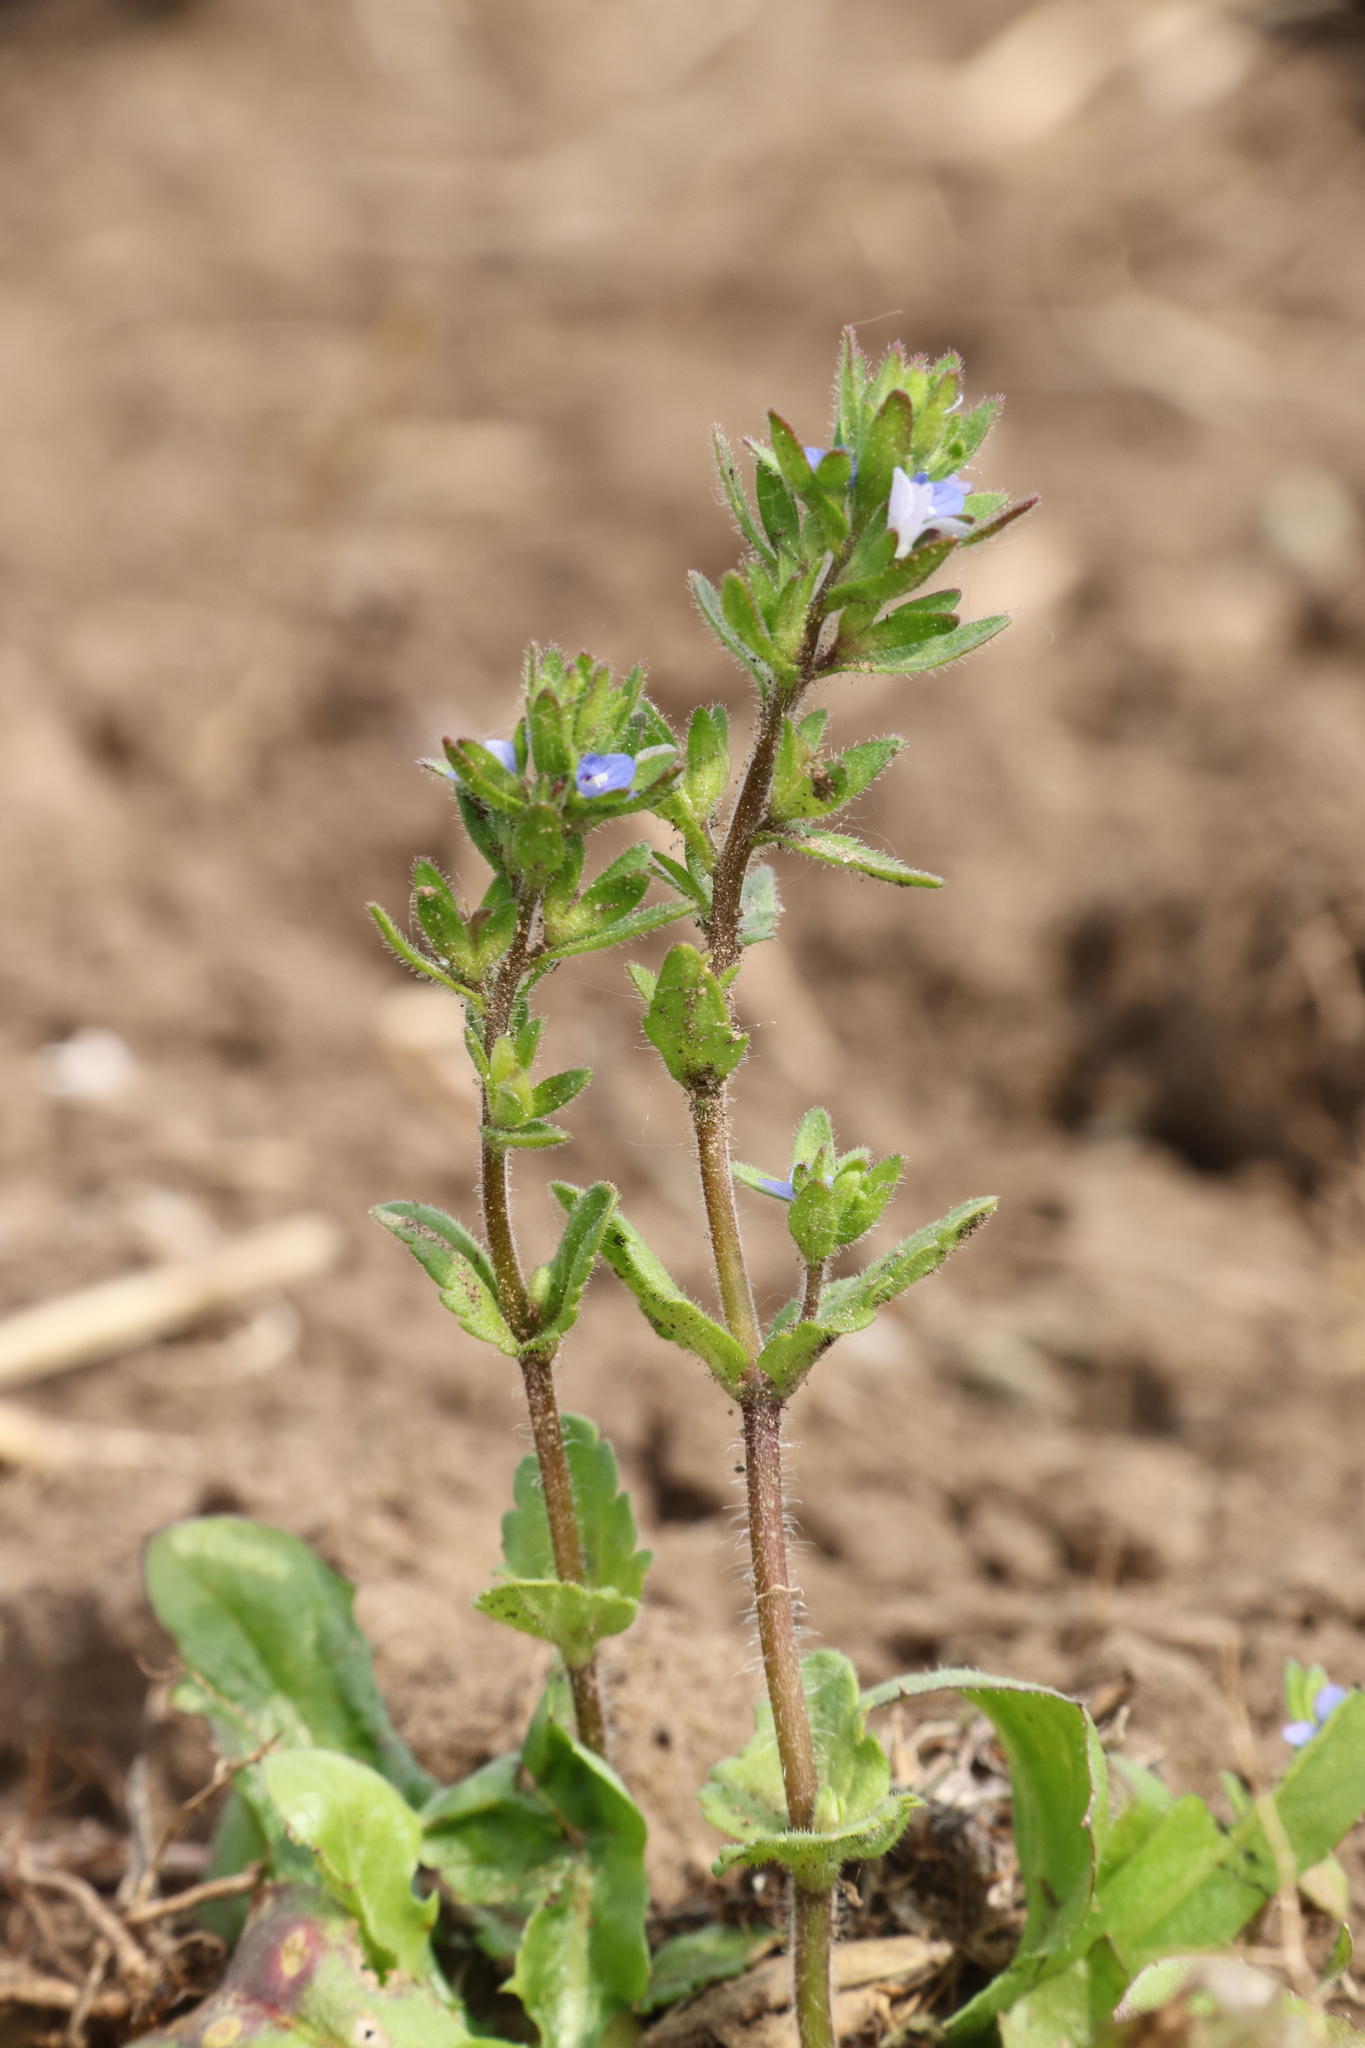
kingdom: Plantae
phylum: Tracheophyta
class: Magnoliopsida
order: Lamiales
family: Plantaginaceae
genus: Veronica
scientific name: Veronica arvensis
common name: Corn speedwell
